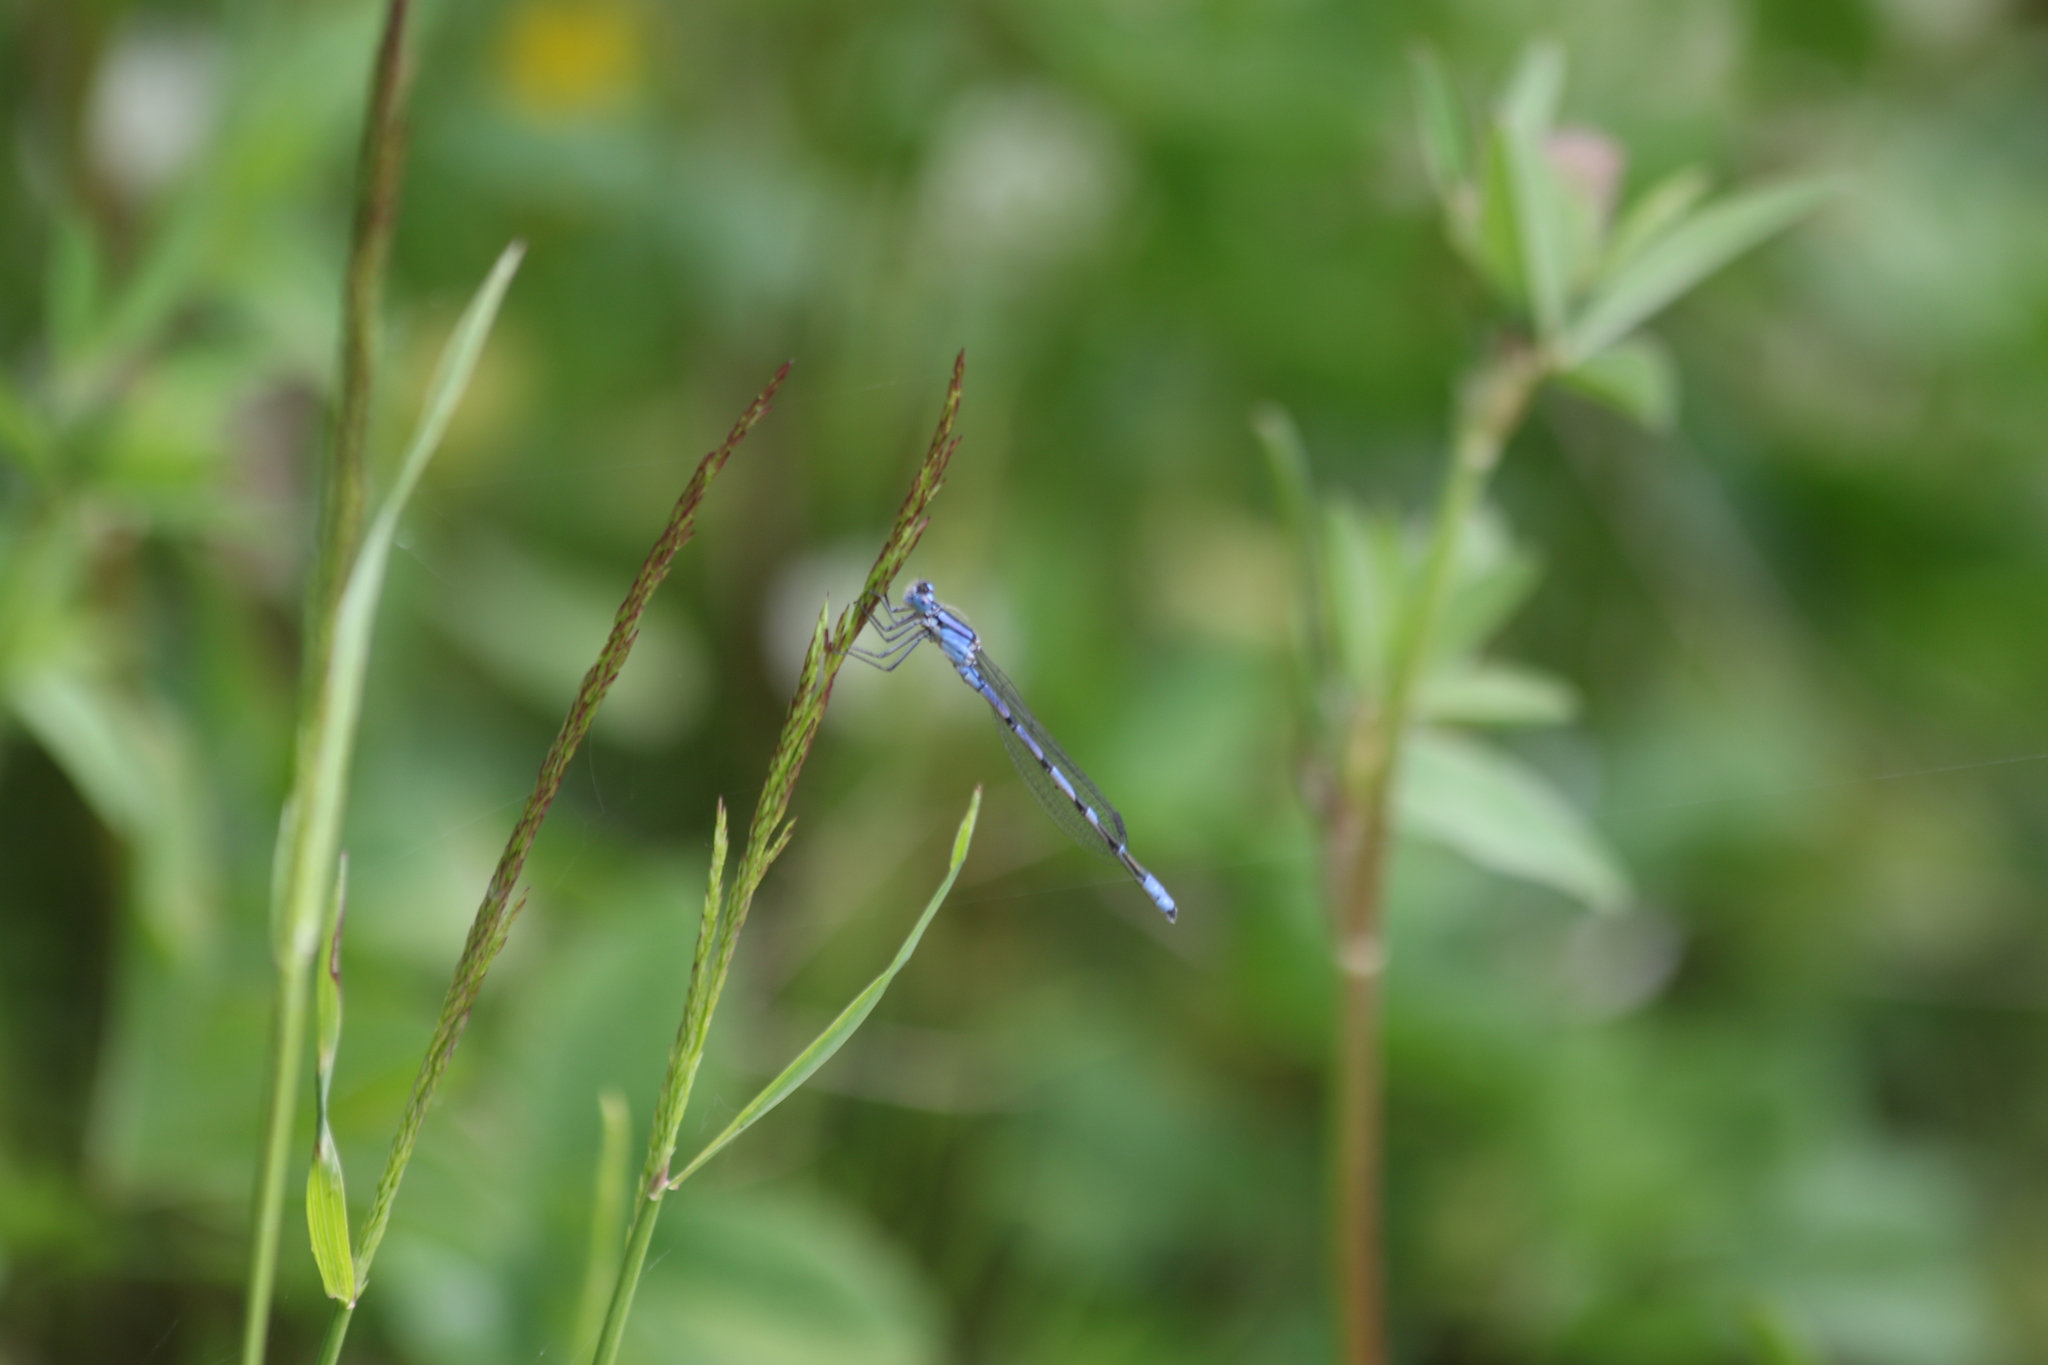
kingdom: Animalia
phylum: Arthropoda
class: Insecta
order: Odonata
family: Coenagrionidae
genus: Enallagma
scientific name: Enallagma cyathigerum
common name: Common blue damselfly
